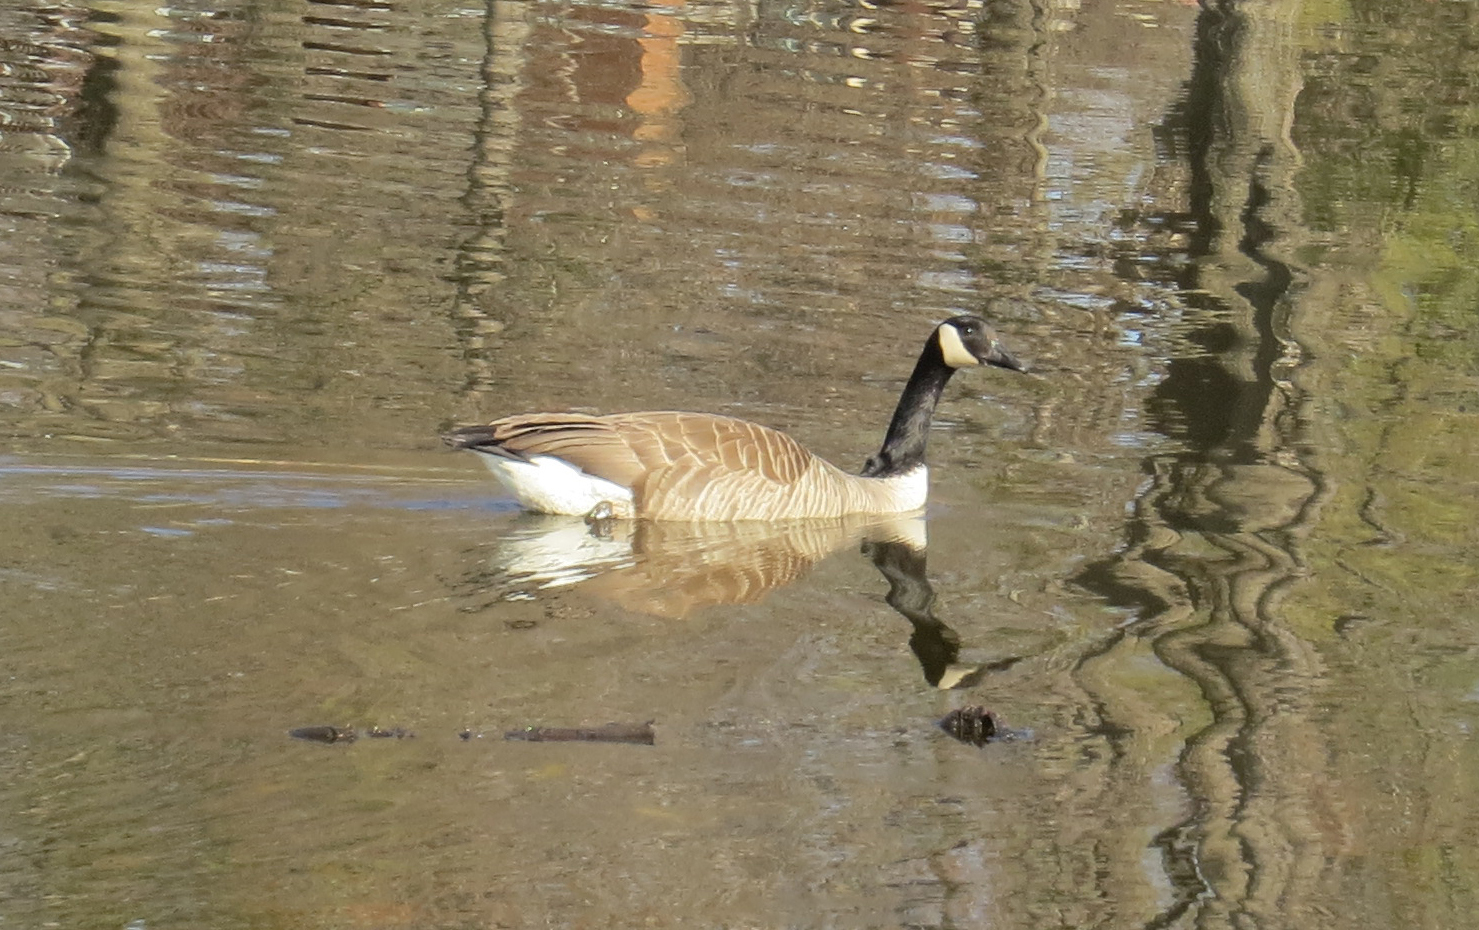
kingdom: Animalia
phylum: Chordata
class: Aves
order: Anseriformes
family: Anatidae
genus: Branta
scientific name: Branta canadensis
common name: Canada goose
